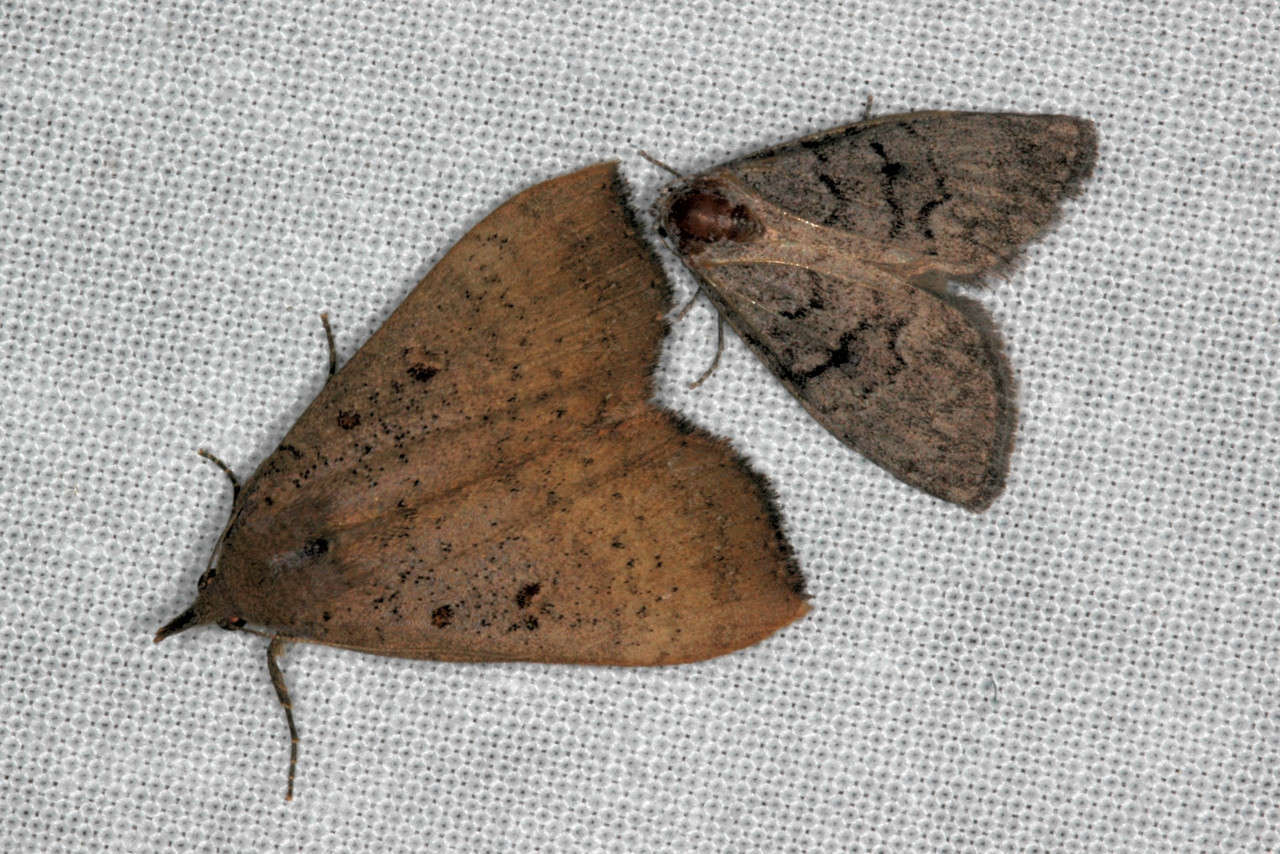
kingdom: Animalia
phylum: Arthropoda
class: Insecta
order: Lepidoptera
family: Erebidae
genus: Rhapsa
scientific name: Rhapsa suscitatalis
